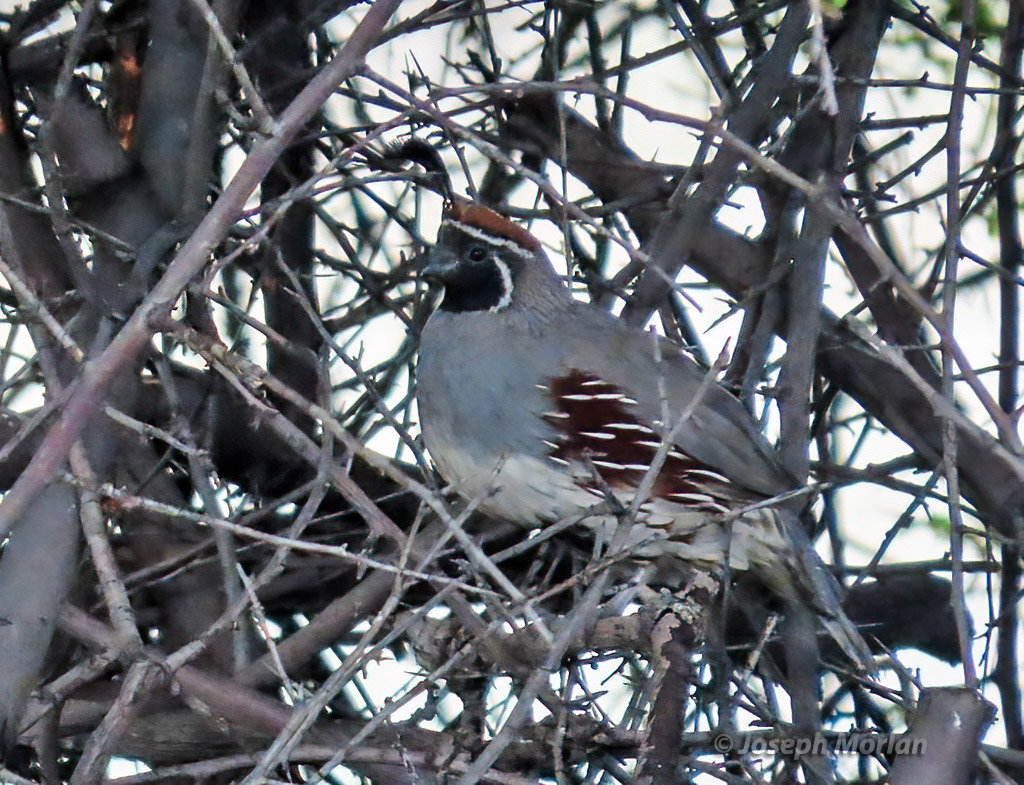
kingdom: Animalia
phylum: Chordata
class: Aves
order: Galliformes
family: Odontophoridae
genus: Callipepla
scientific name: Callipepla gambelii
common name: Gambel's quail
